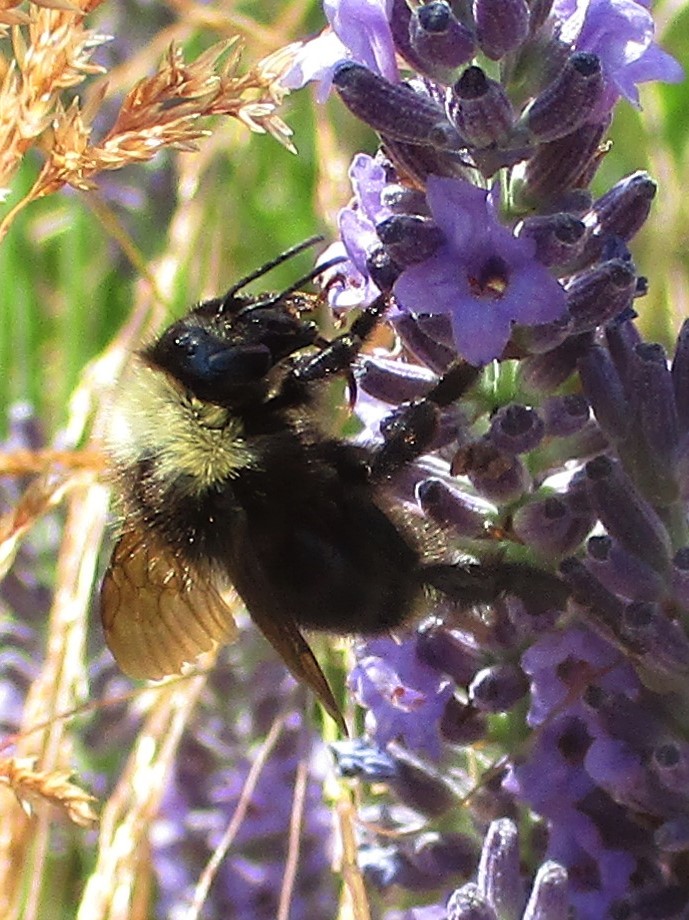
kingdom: Animalia
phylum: Arthropoda
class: Insecta
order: Hymenoptera
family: Apidae
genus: Bombus
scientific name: Bombus californicus
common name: California bumble bee
